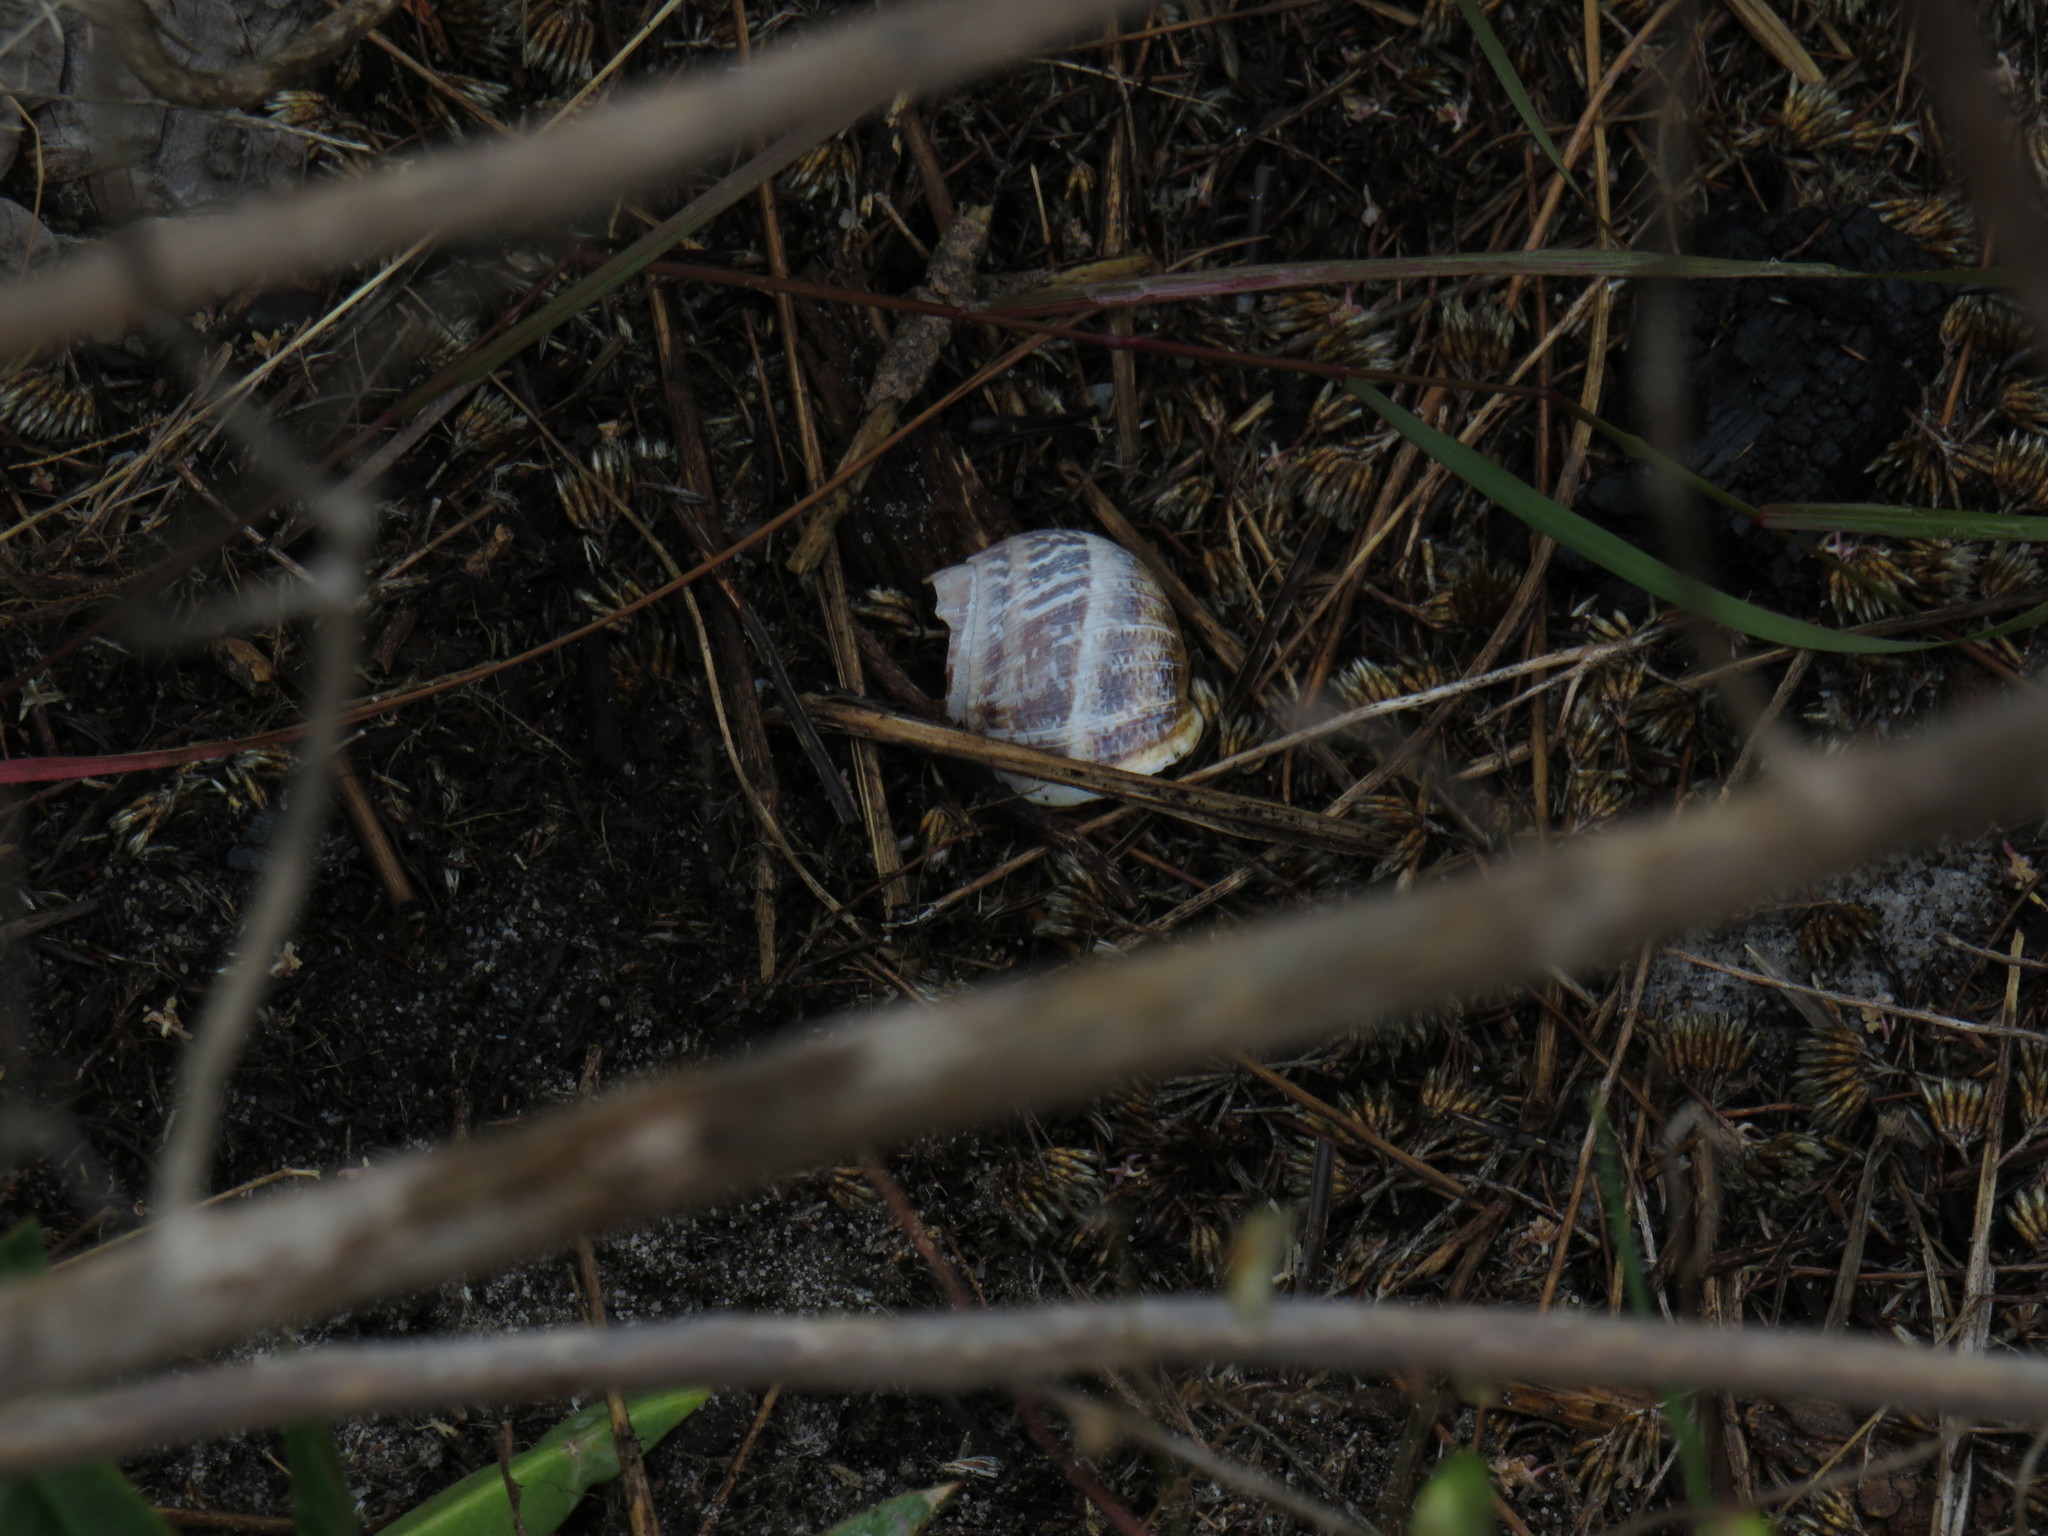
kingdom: Animalia
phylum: Mollusca
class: Gastropoda
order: Stylommatophora
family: Helicidae
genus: Cornu
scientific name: Cornu aspersum
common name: Brown garden snail
